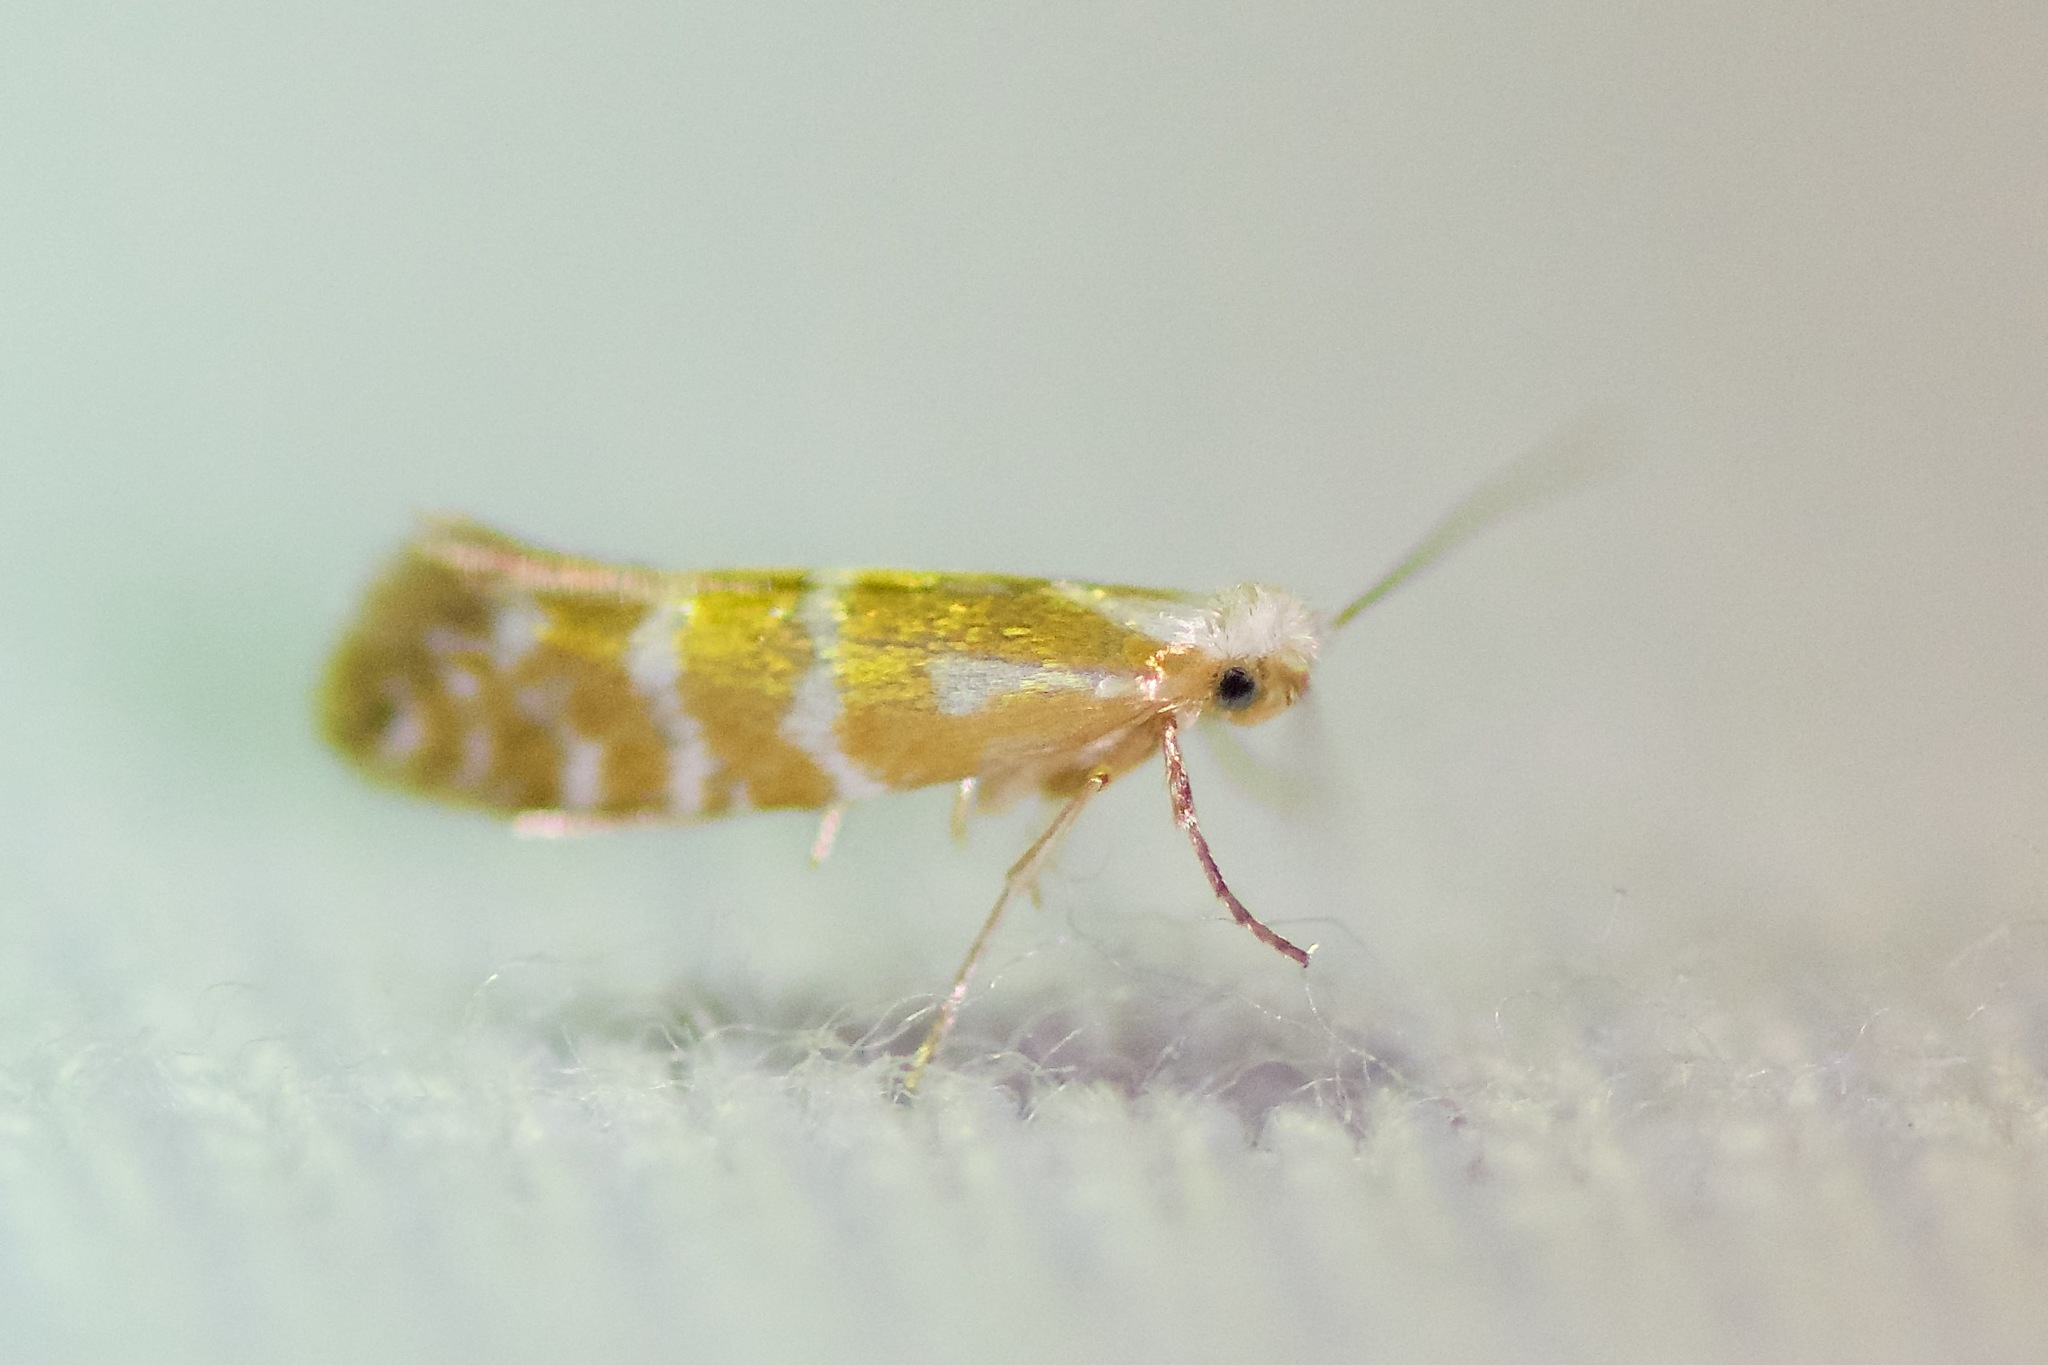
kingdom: Animalia
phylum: Arthropoda
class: Insecta
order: Lepidoptera
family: Argyresthiidae
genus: Argyresthia
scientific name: Argyresthia aureoargentella
